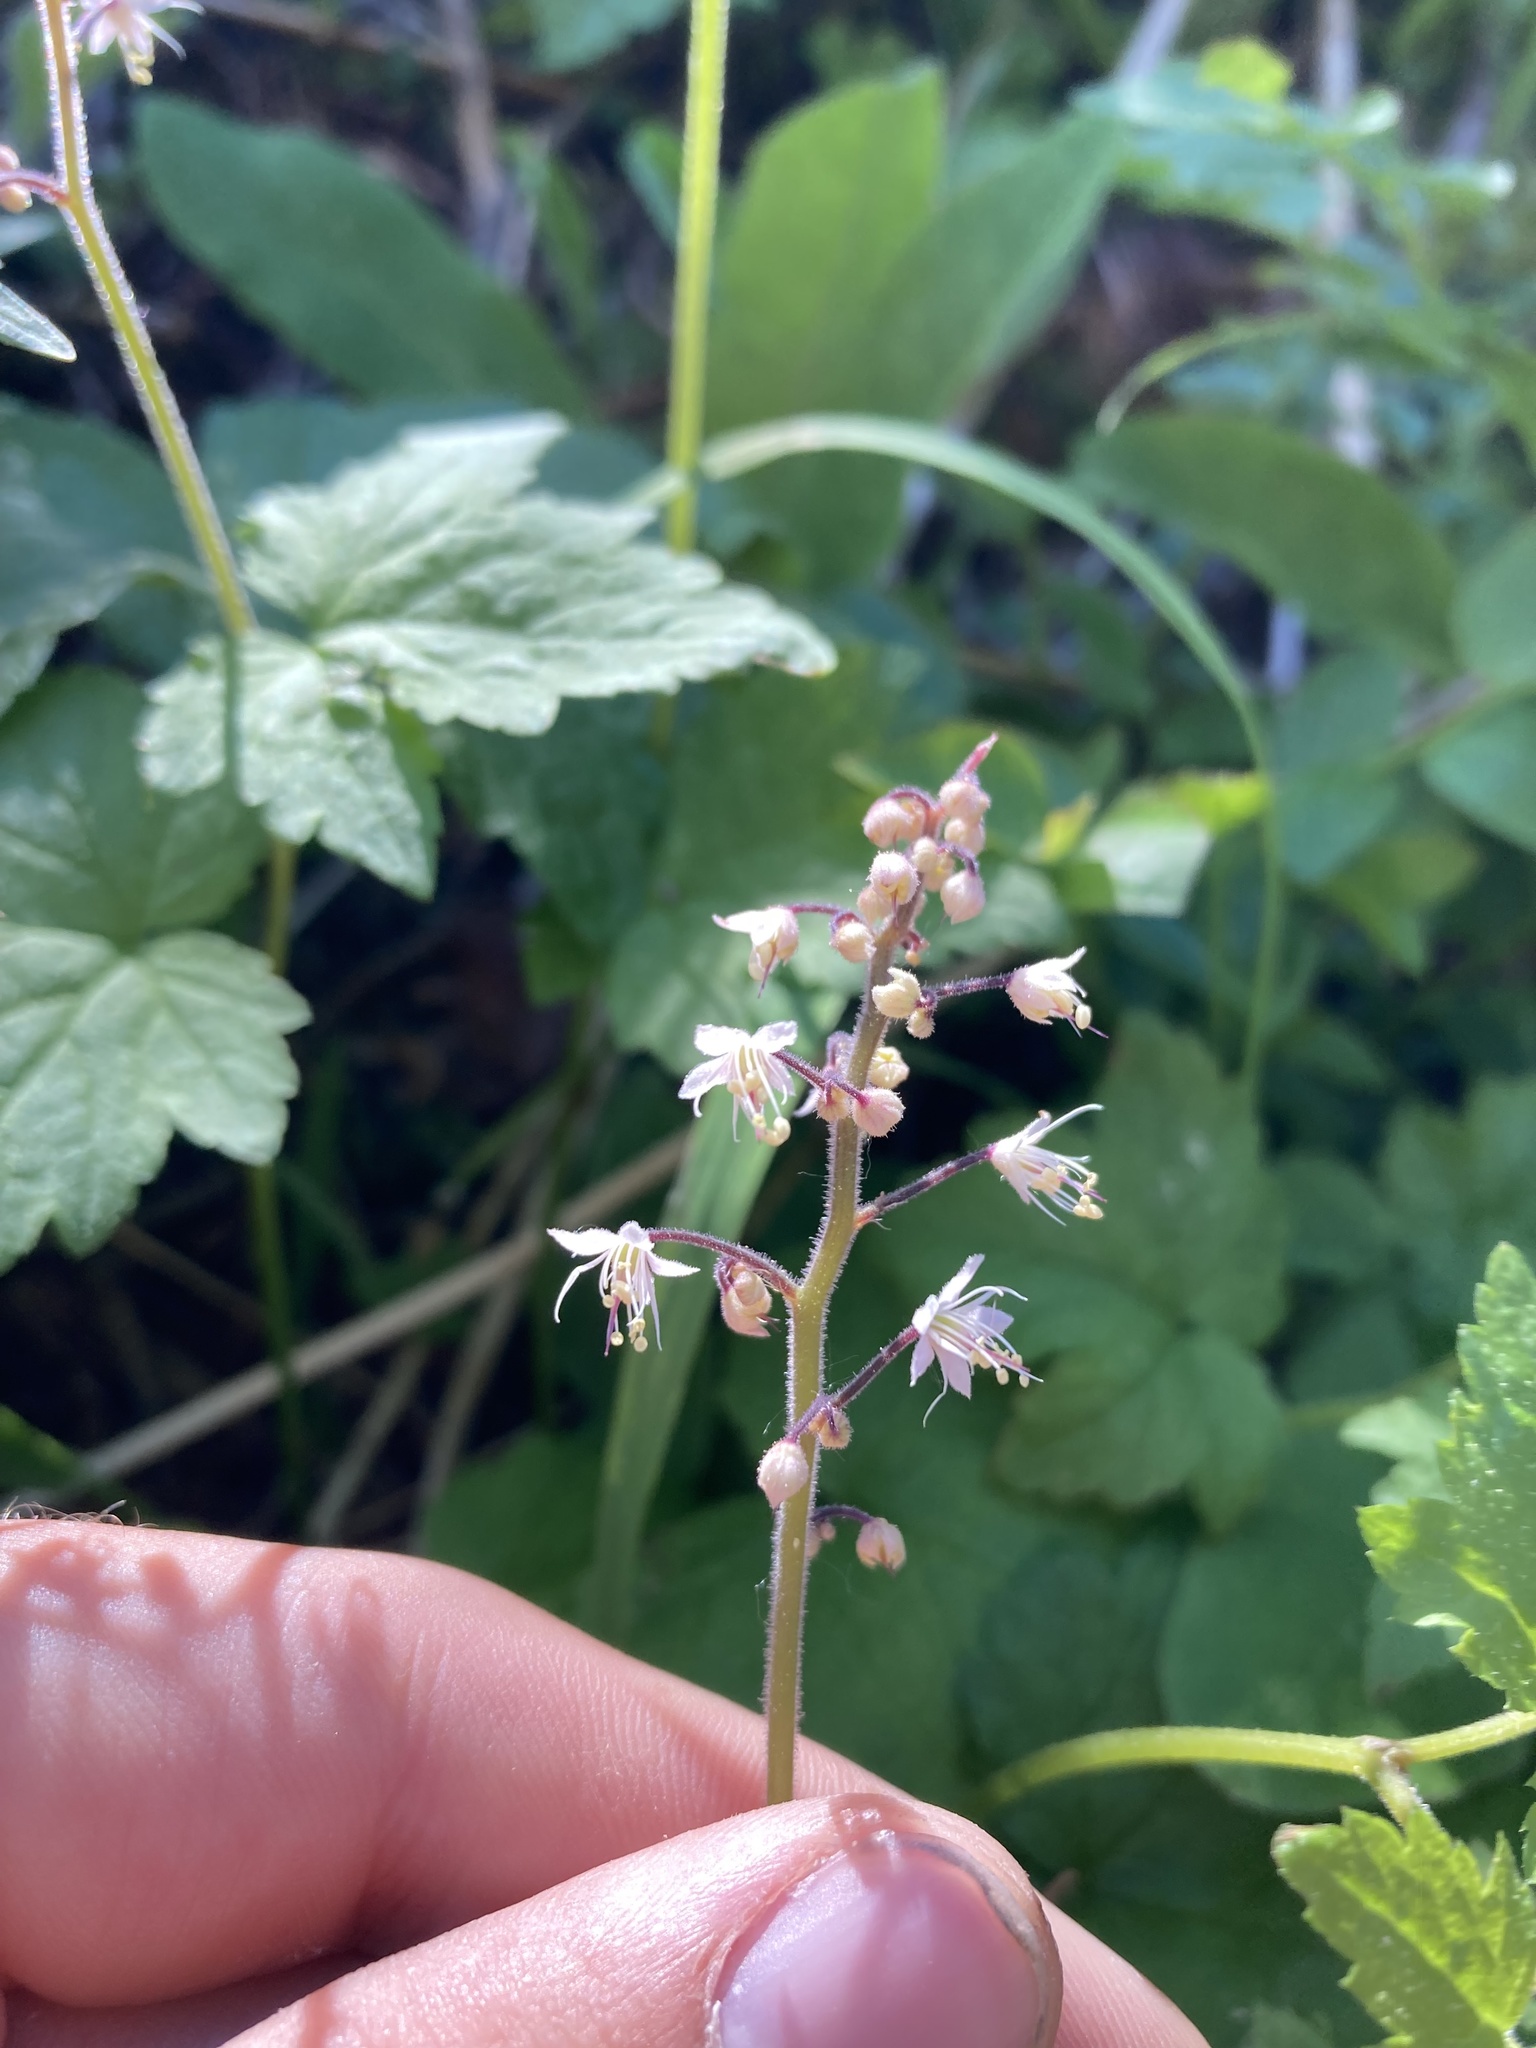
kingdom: Plantae
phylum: Tracheophyta
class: Magnoliopsida
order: Saxifragales
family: Saxifragaceae
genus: Tiarella
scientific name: Tiarella trifoliata
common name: Sugar-scoop
